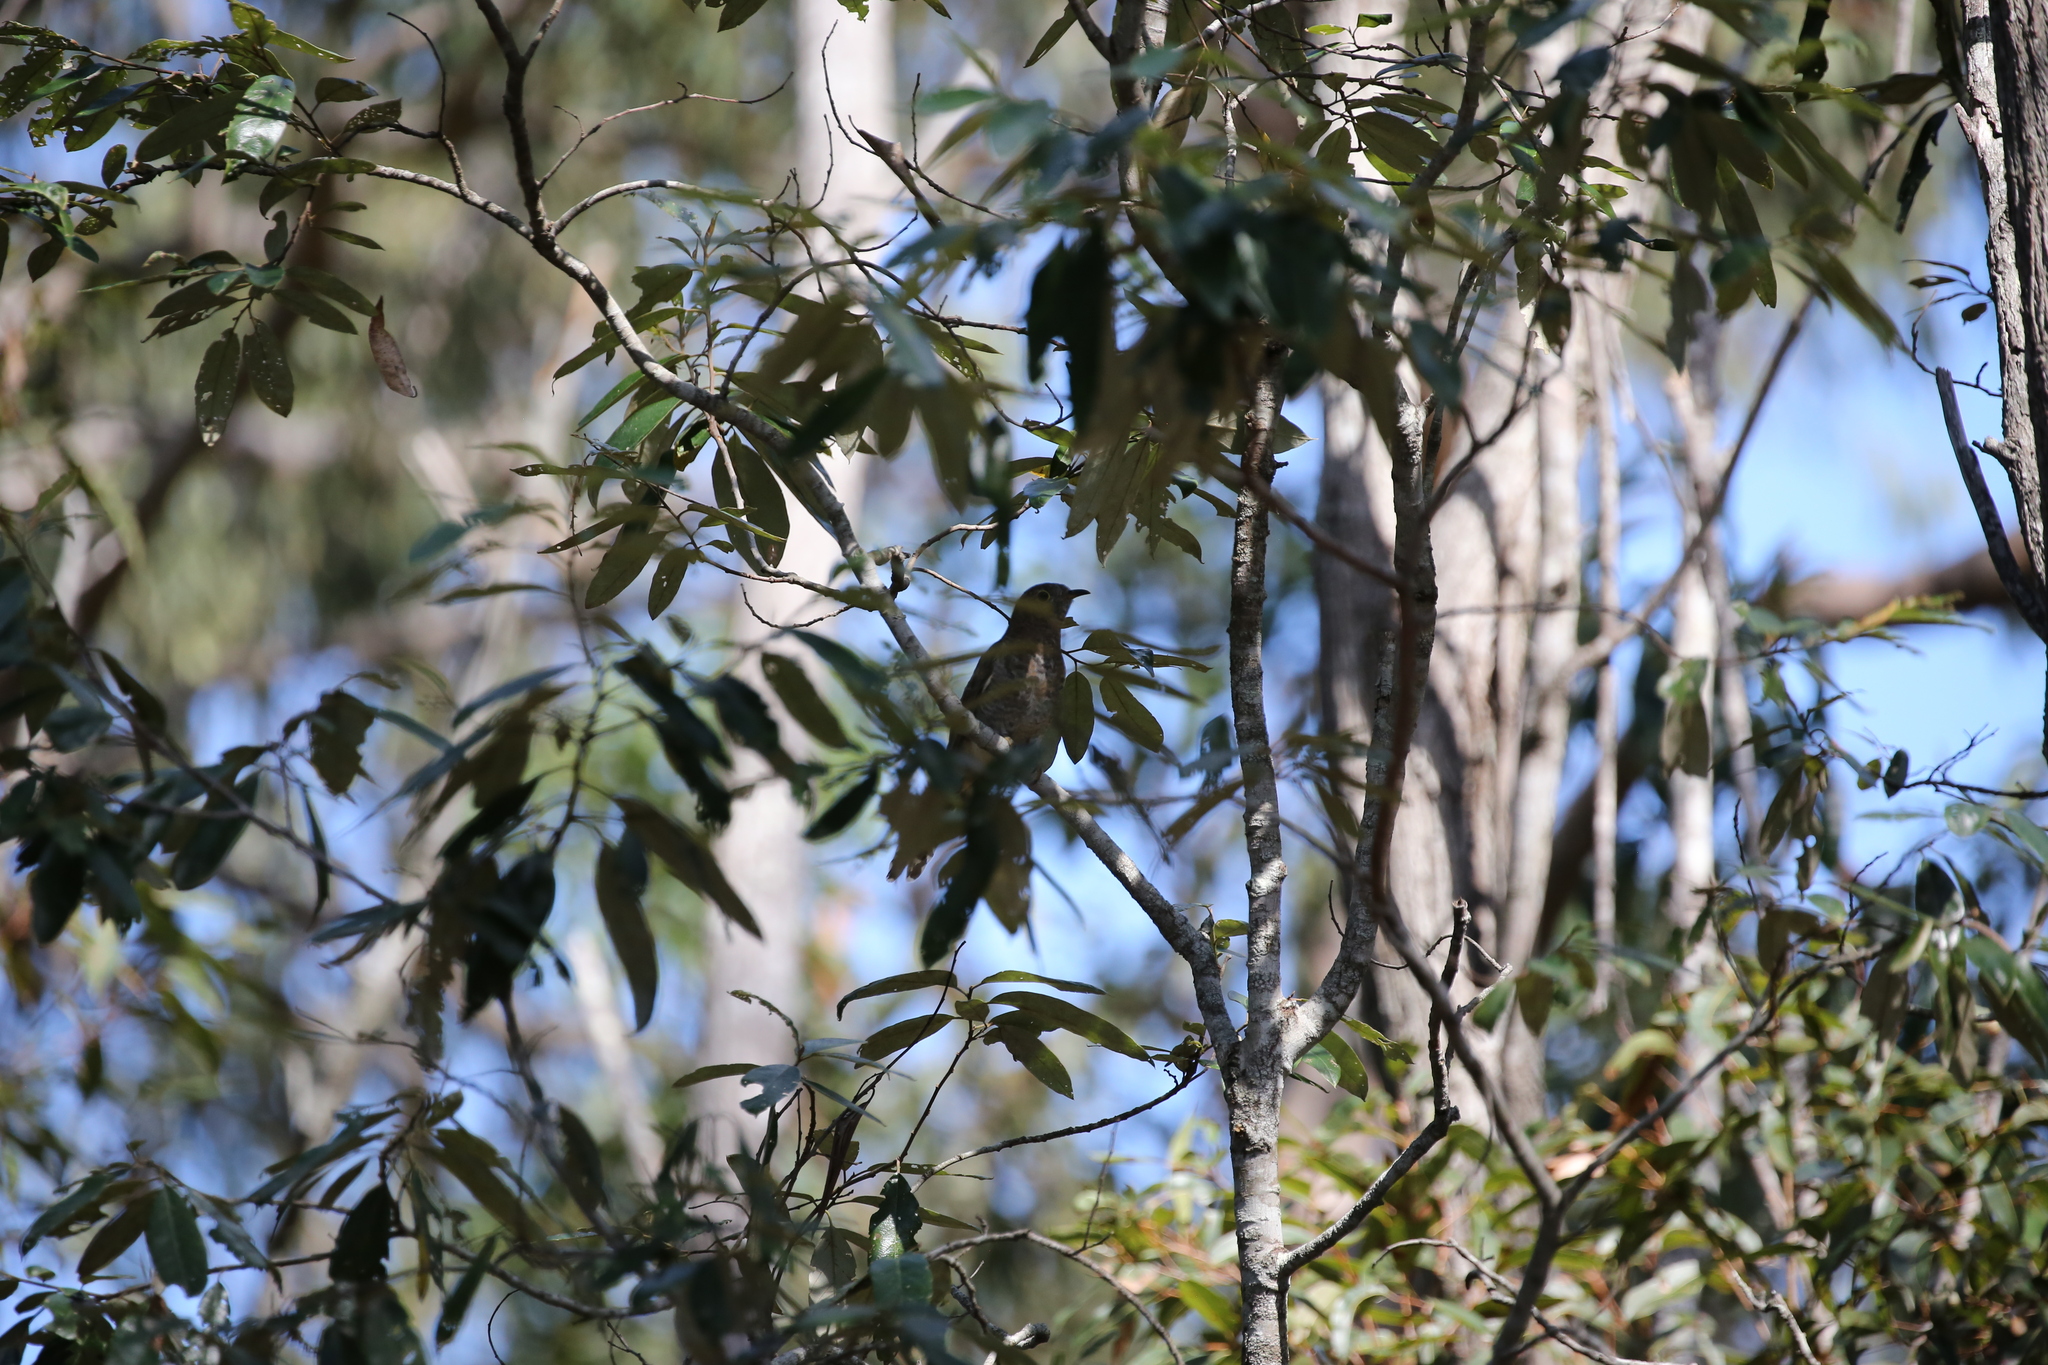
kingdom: Animalia
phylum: Chordata
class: Aves
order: Cuculiformes
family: Cuculidae
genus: Cacomantis
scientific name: Cacomantis variolosus
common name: Brush cuckoo
